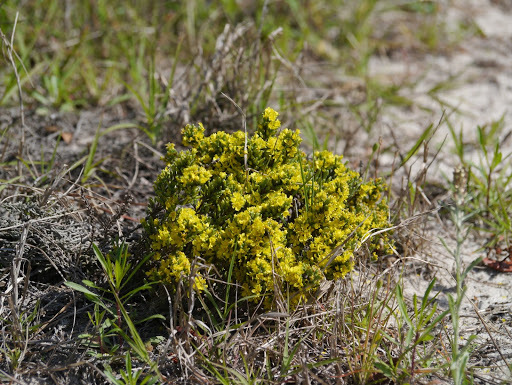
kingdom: Plantae
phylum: Tracheophyta
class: Magnoliopsida
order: Malvales
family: Cistaceae
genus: Hudsonia
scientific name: Hudsonia tomentosa
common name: Beach-heath
